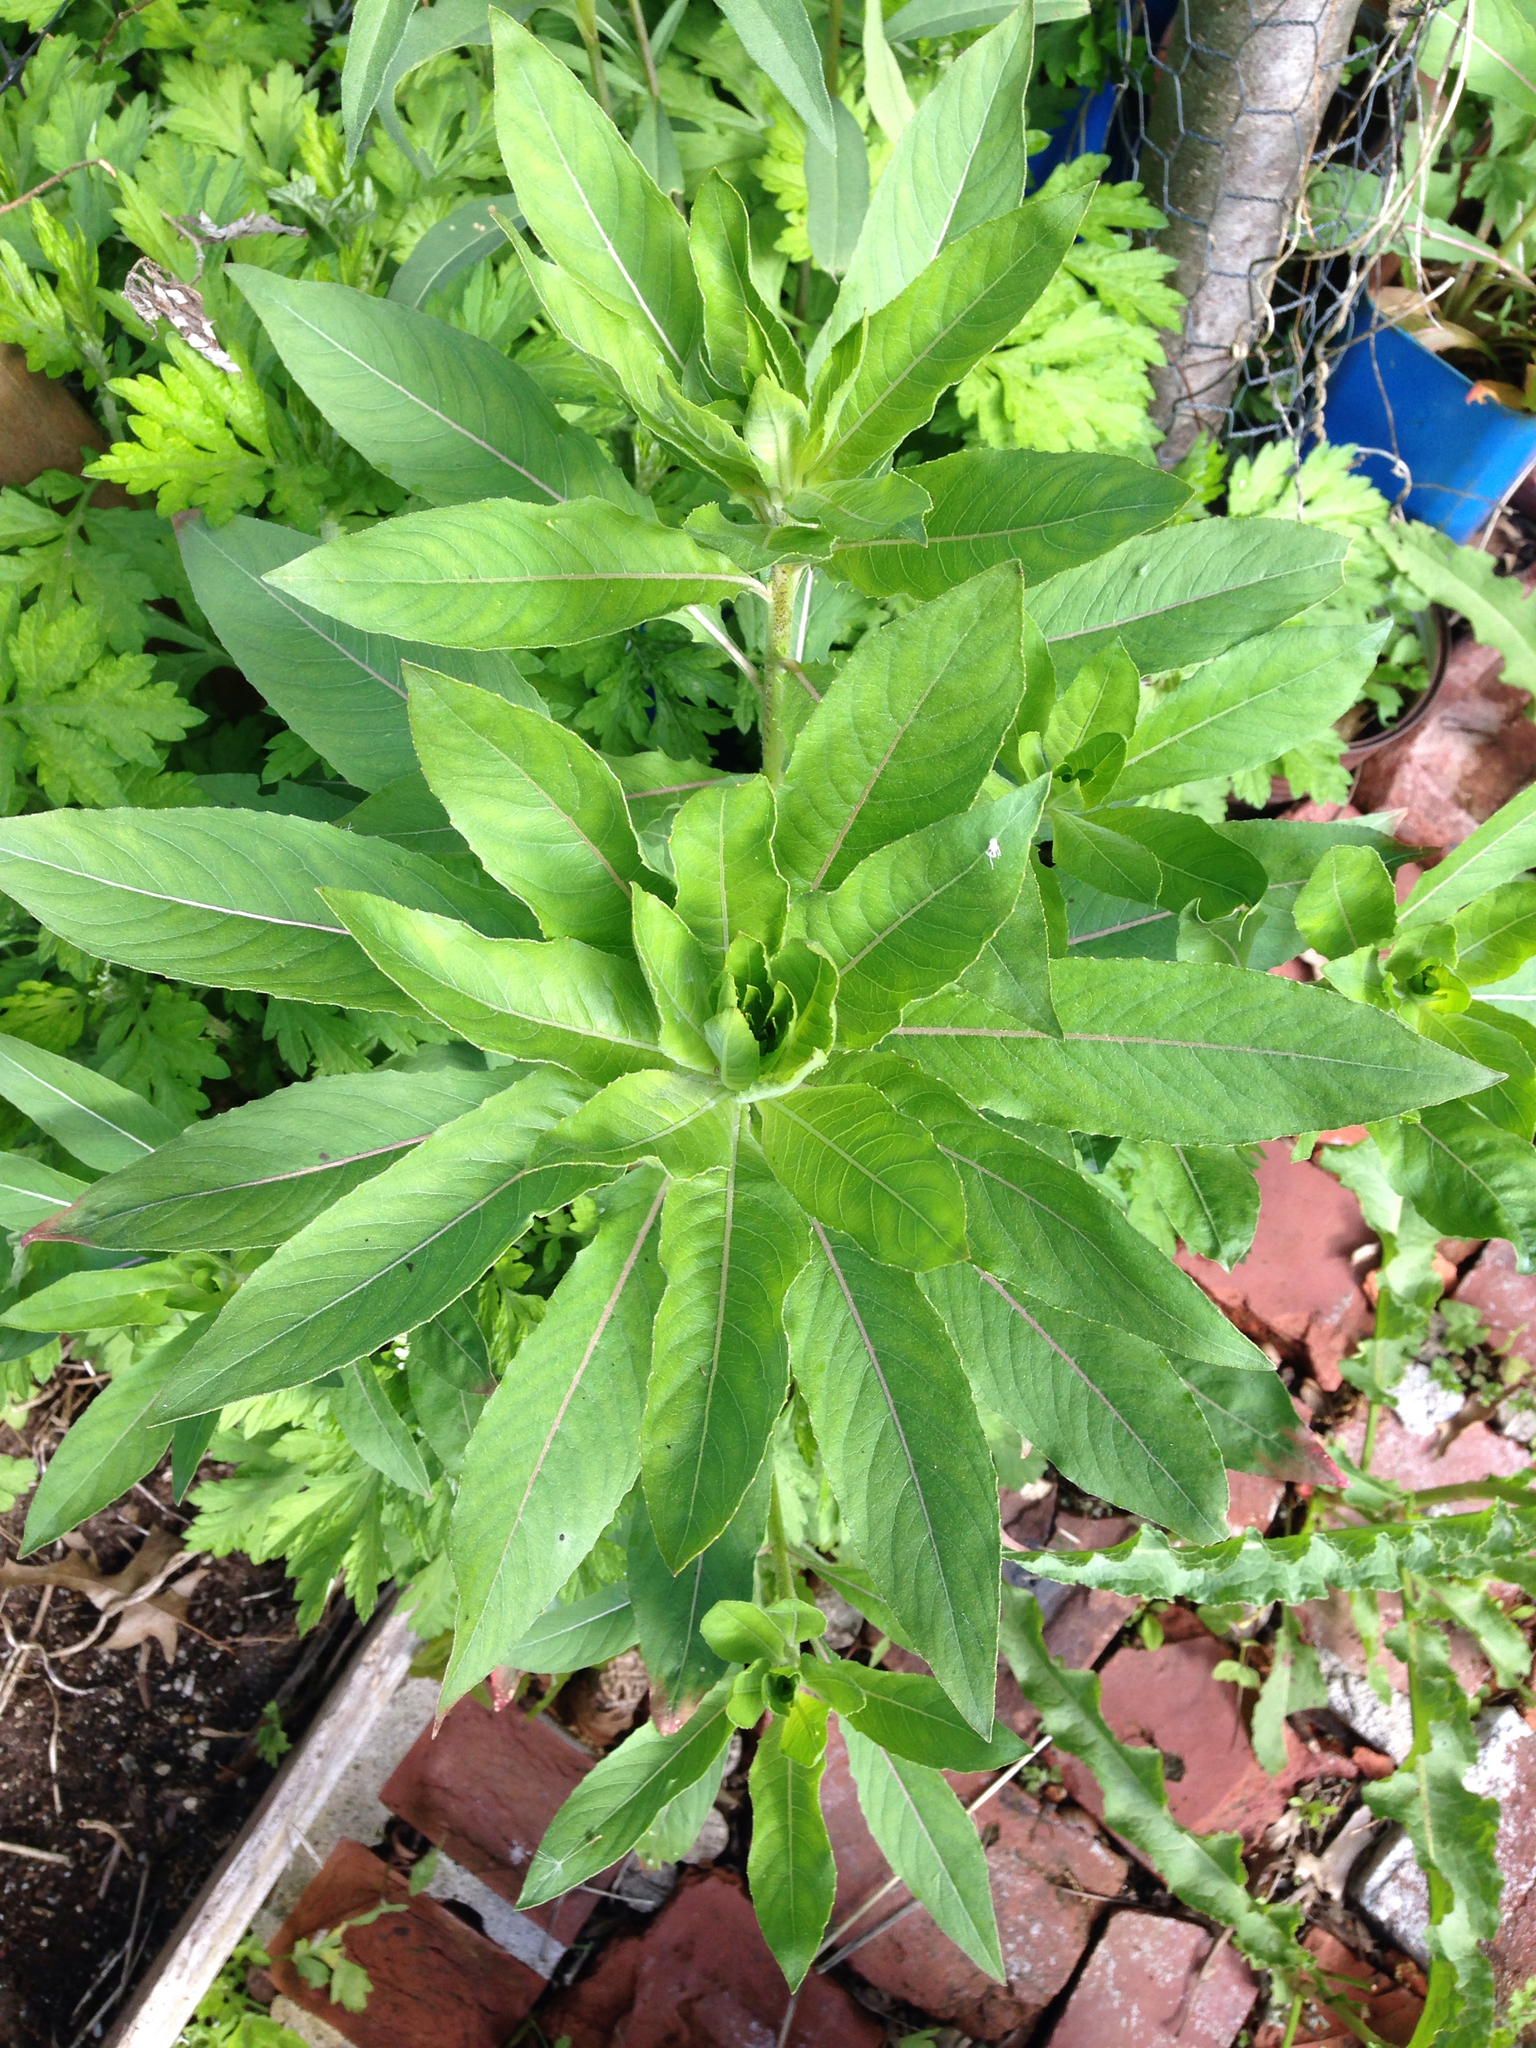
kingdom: Plantae
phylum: Tracheophyta
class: Magnoliopsida
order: Myrtales
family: Onagraceae
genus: Oenothera
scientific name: Oenothera biennis
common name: Common evening-primrose
